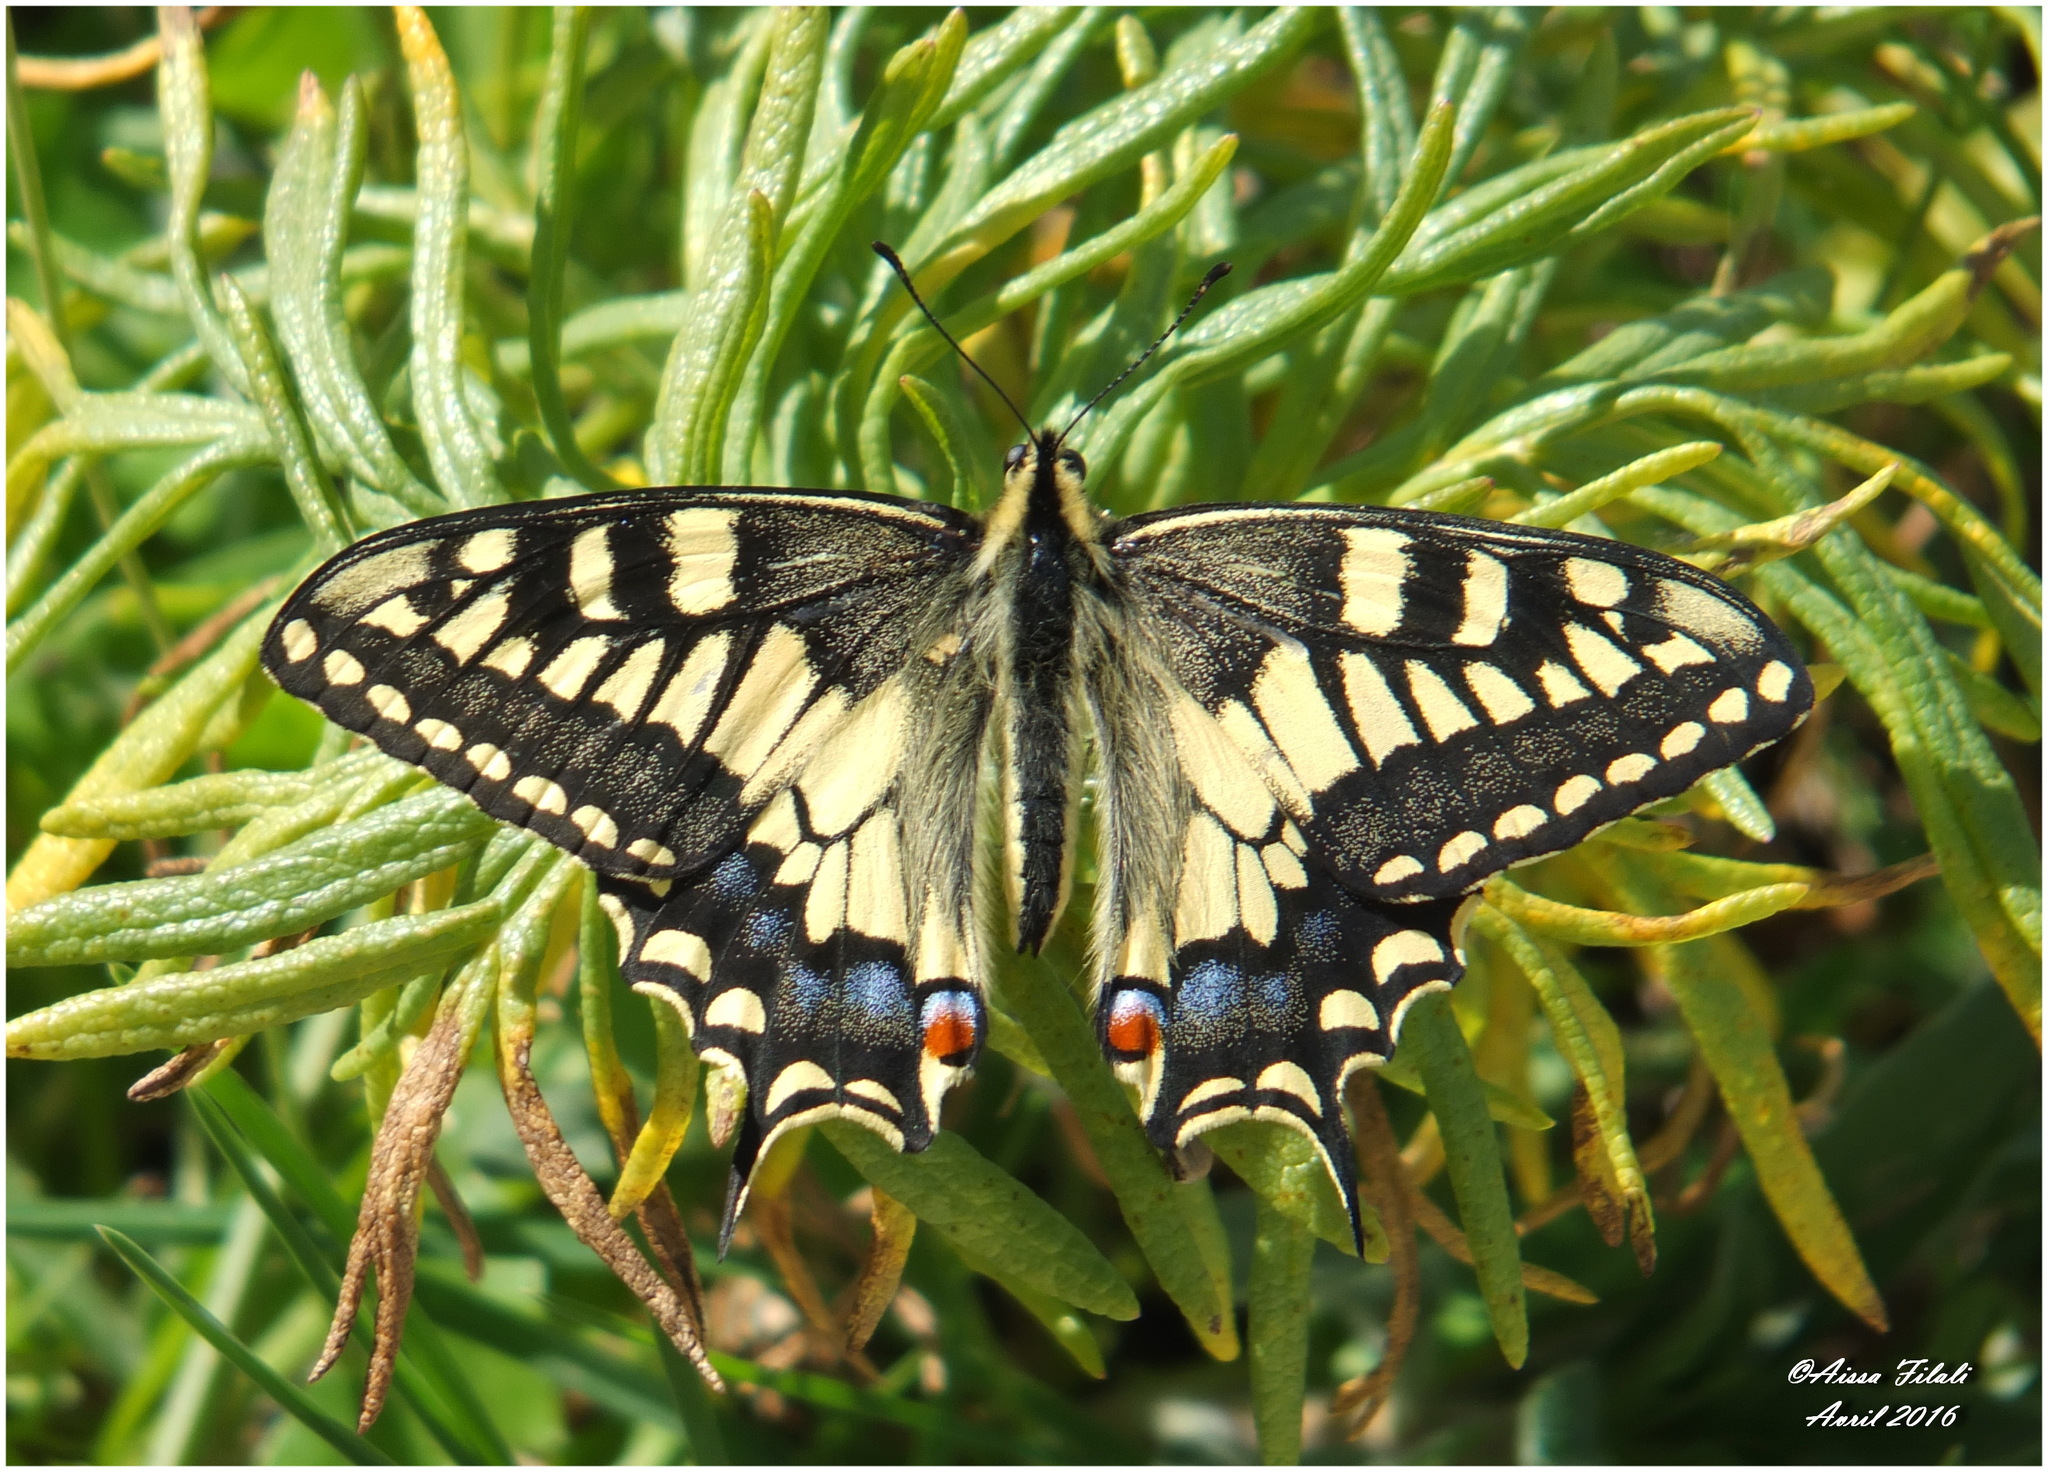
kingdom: Animalia
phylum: Arthropoda
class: Insecta
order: Lepidoptera
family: Papilionidae
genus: Papilio
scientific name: Papilio machaon
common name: Swallowtail
